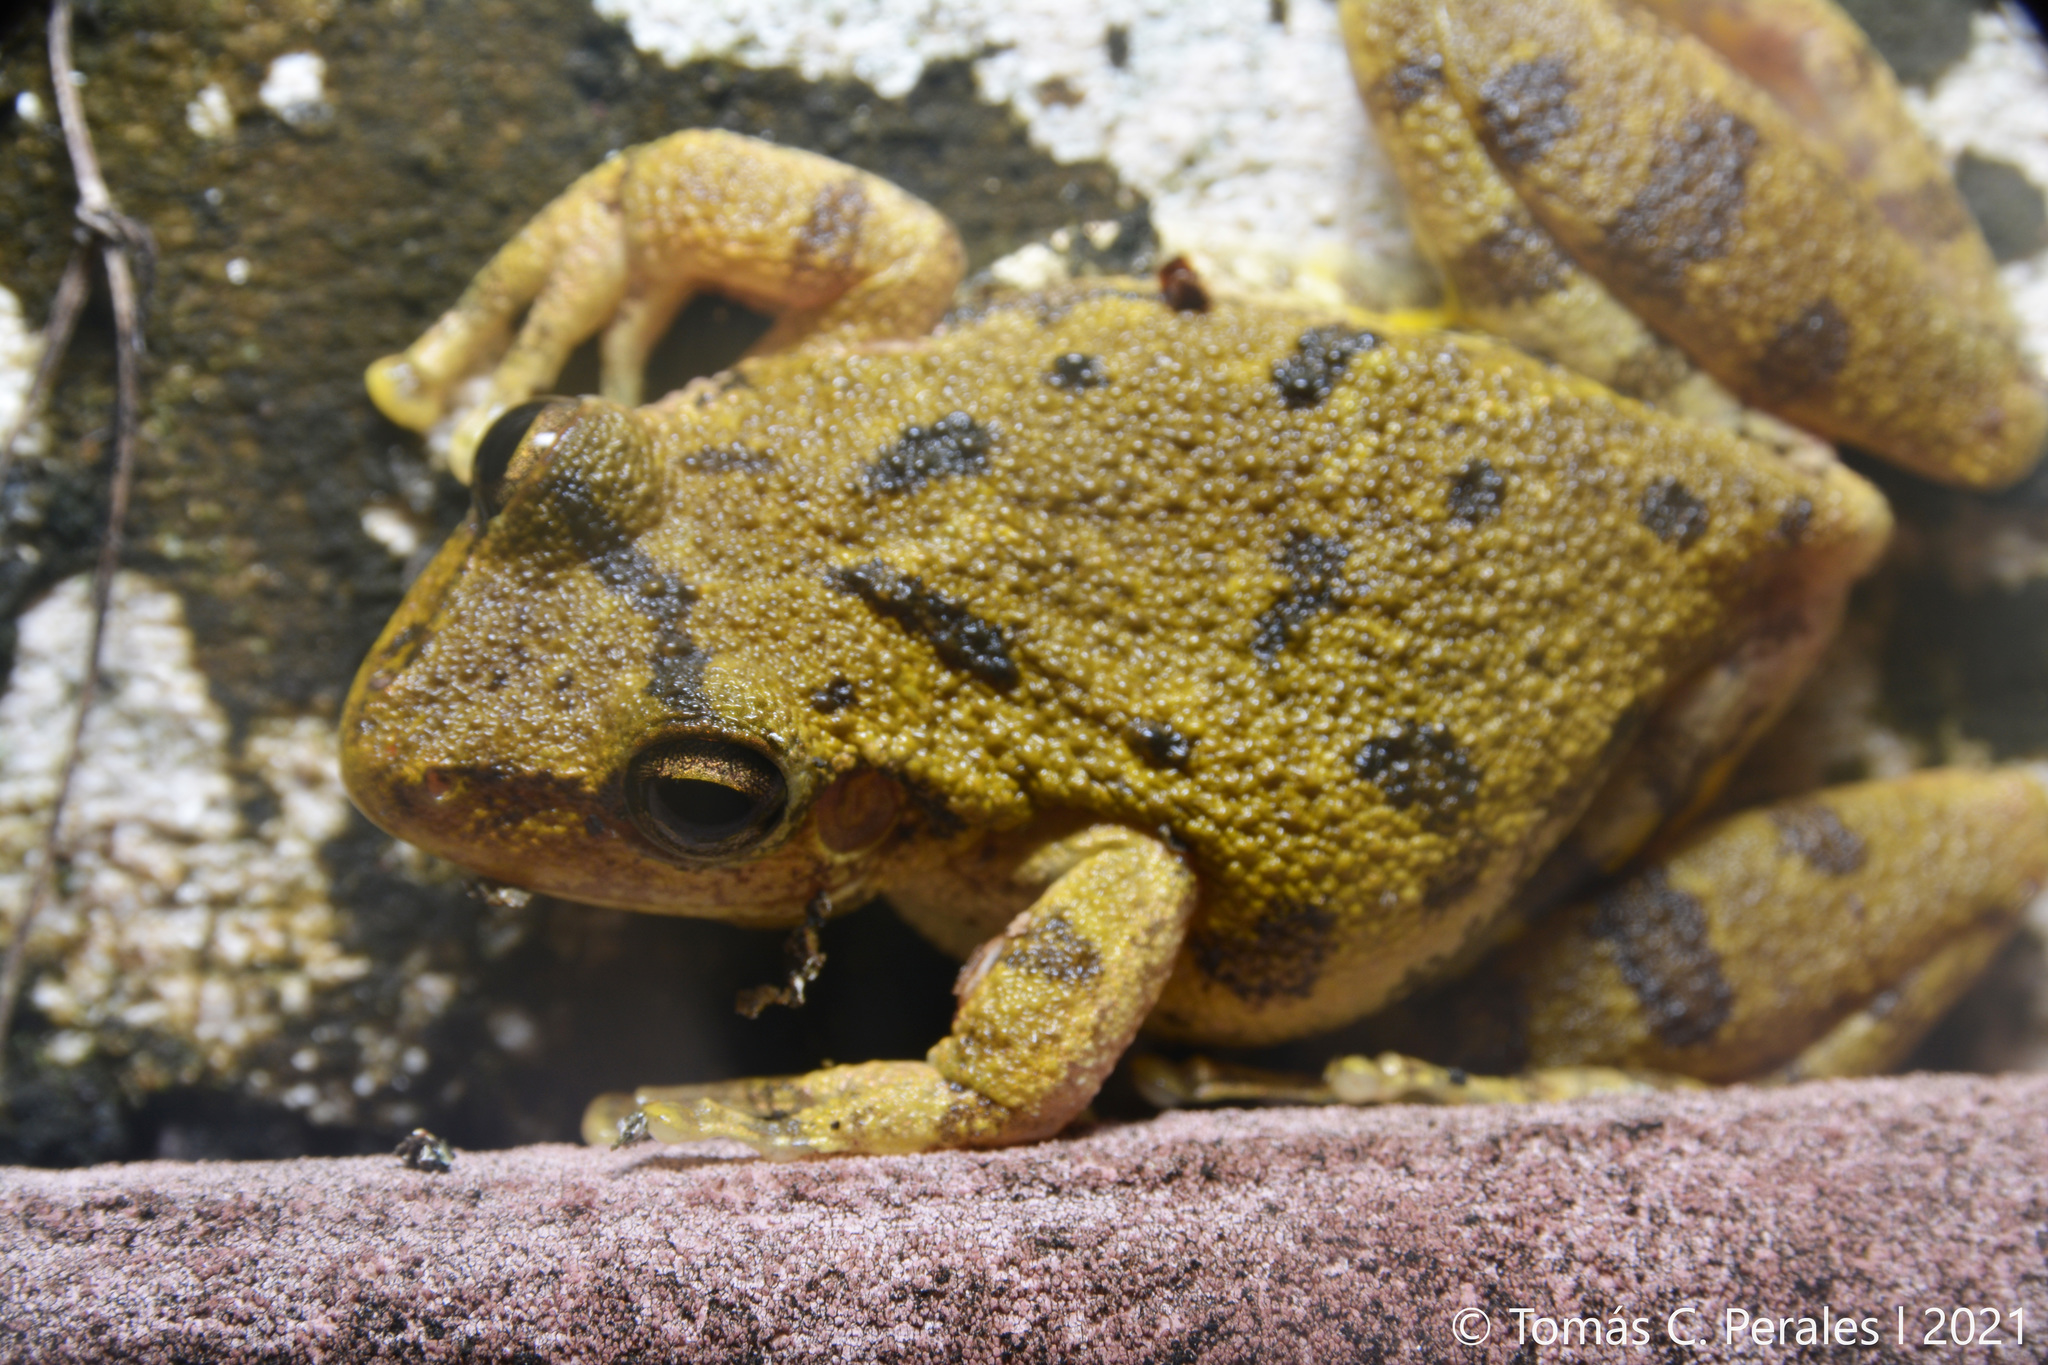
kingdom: Animalia
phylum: Chordata
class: Amphibia
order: Anura
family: Hylidae
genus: Scinax
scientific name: Scinax fuscovarius
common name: Fuscous-blotched treefrog
